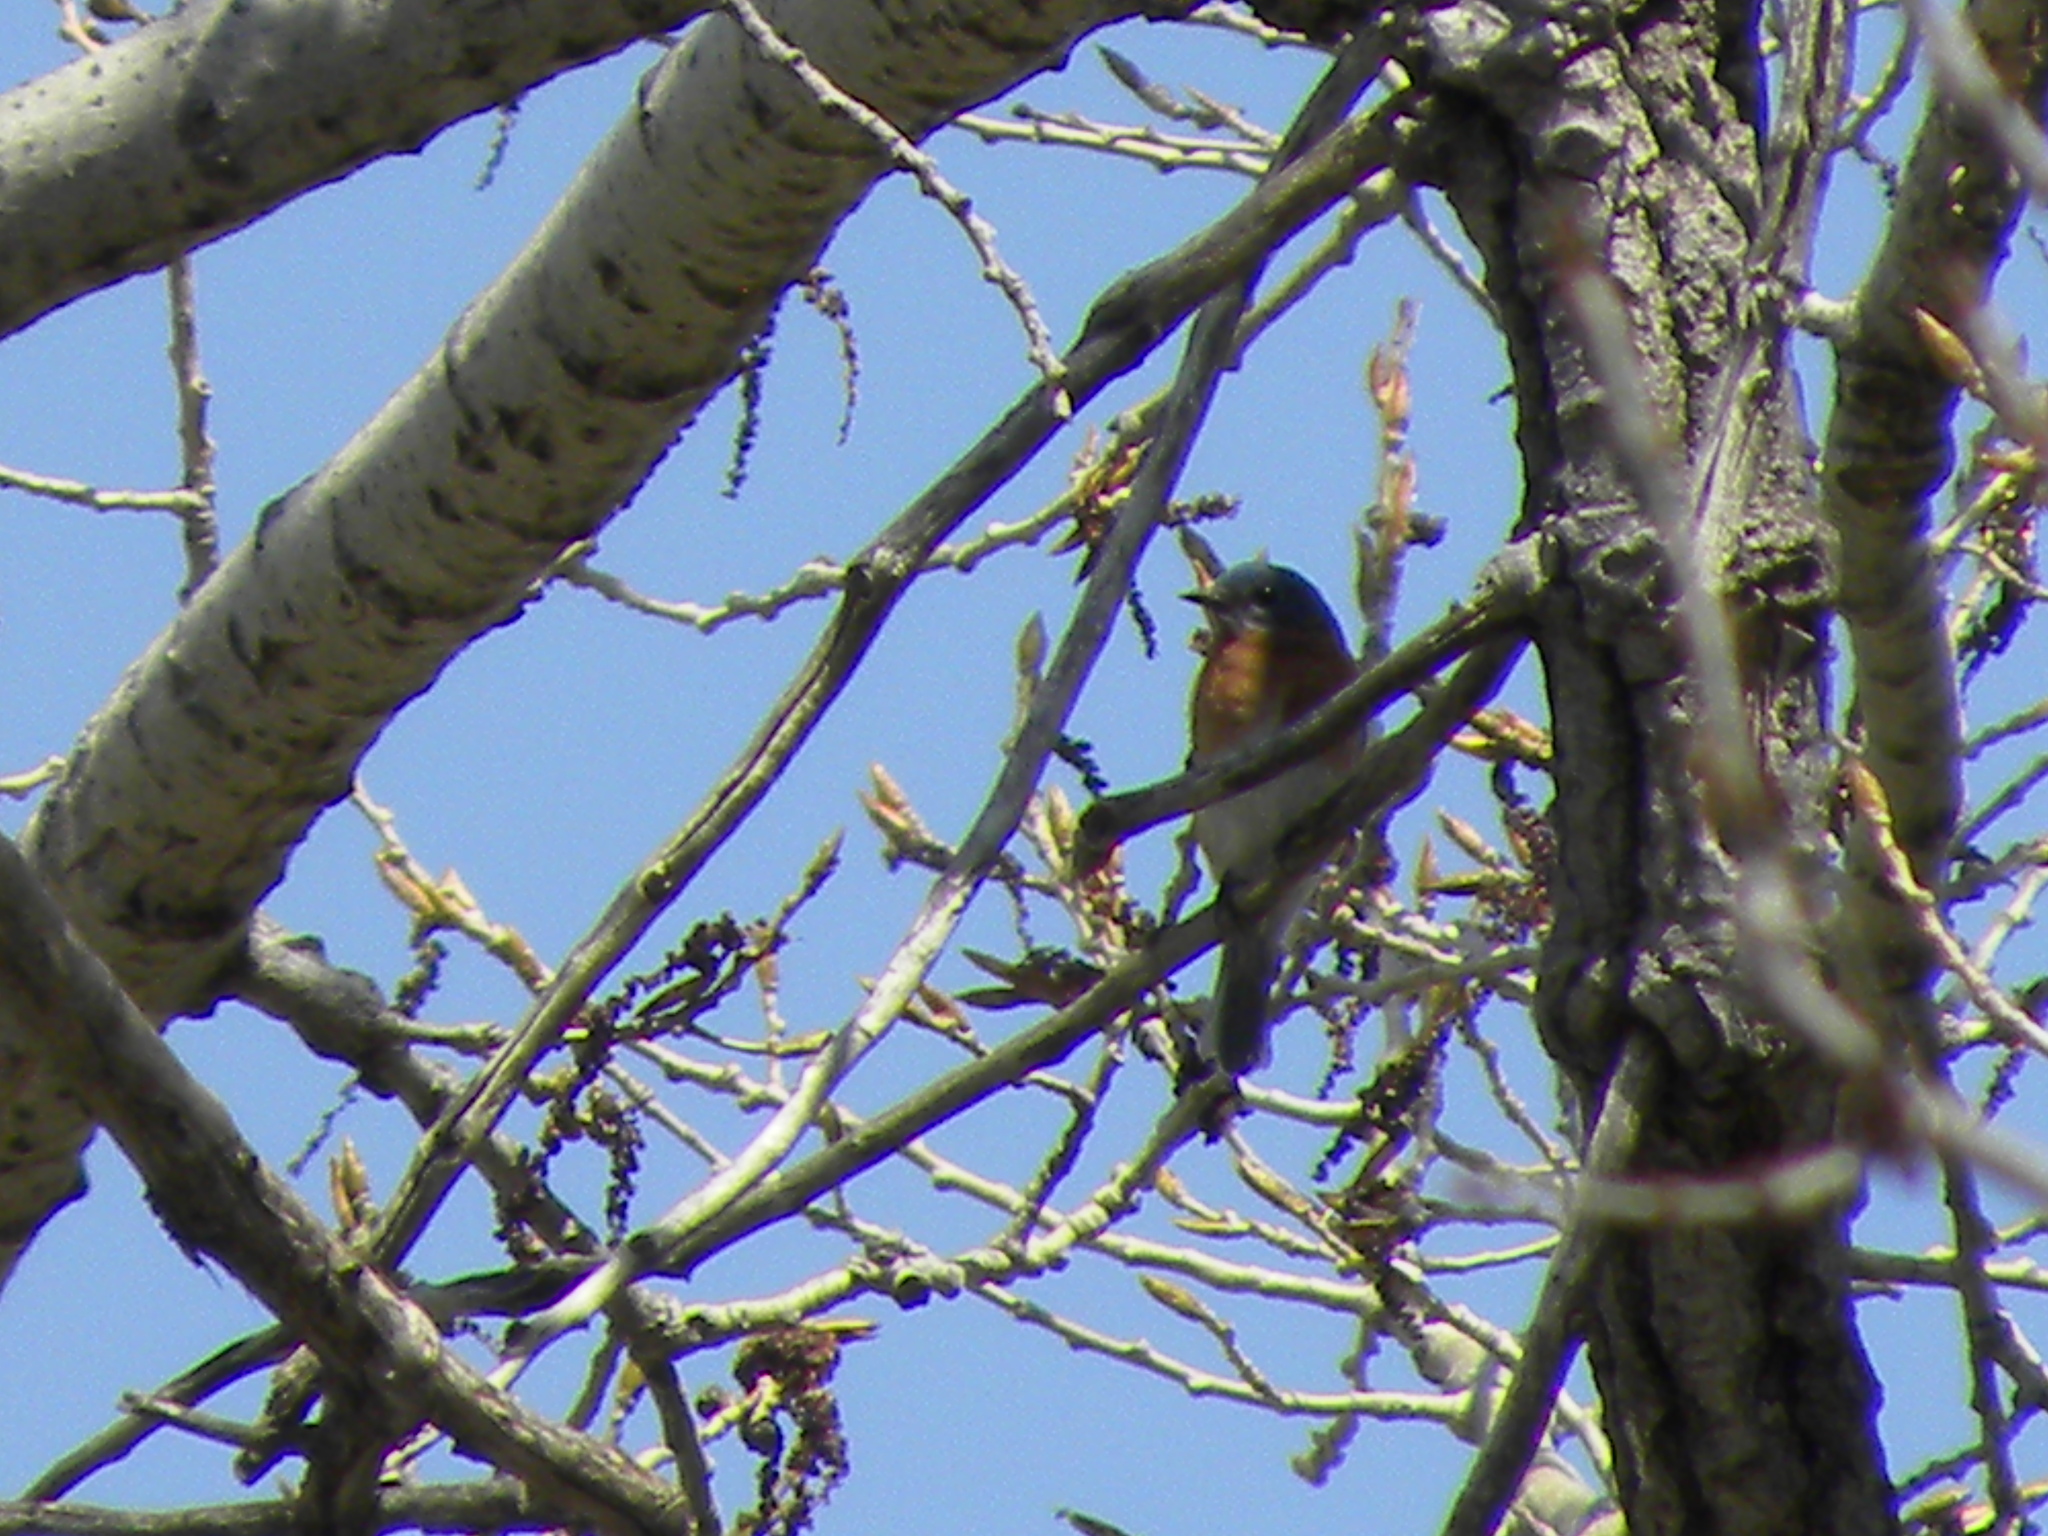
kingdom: Animalia
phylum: Chordata
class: Aves
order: Passeriformes
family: Turdidae
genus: Sialia
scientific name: Sialia sialis
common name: Eastern bluebird
